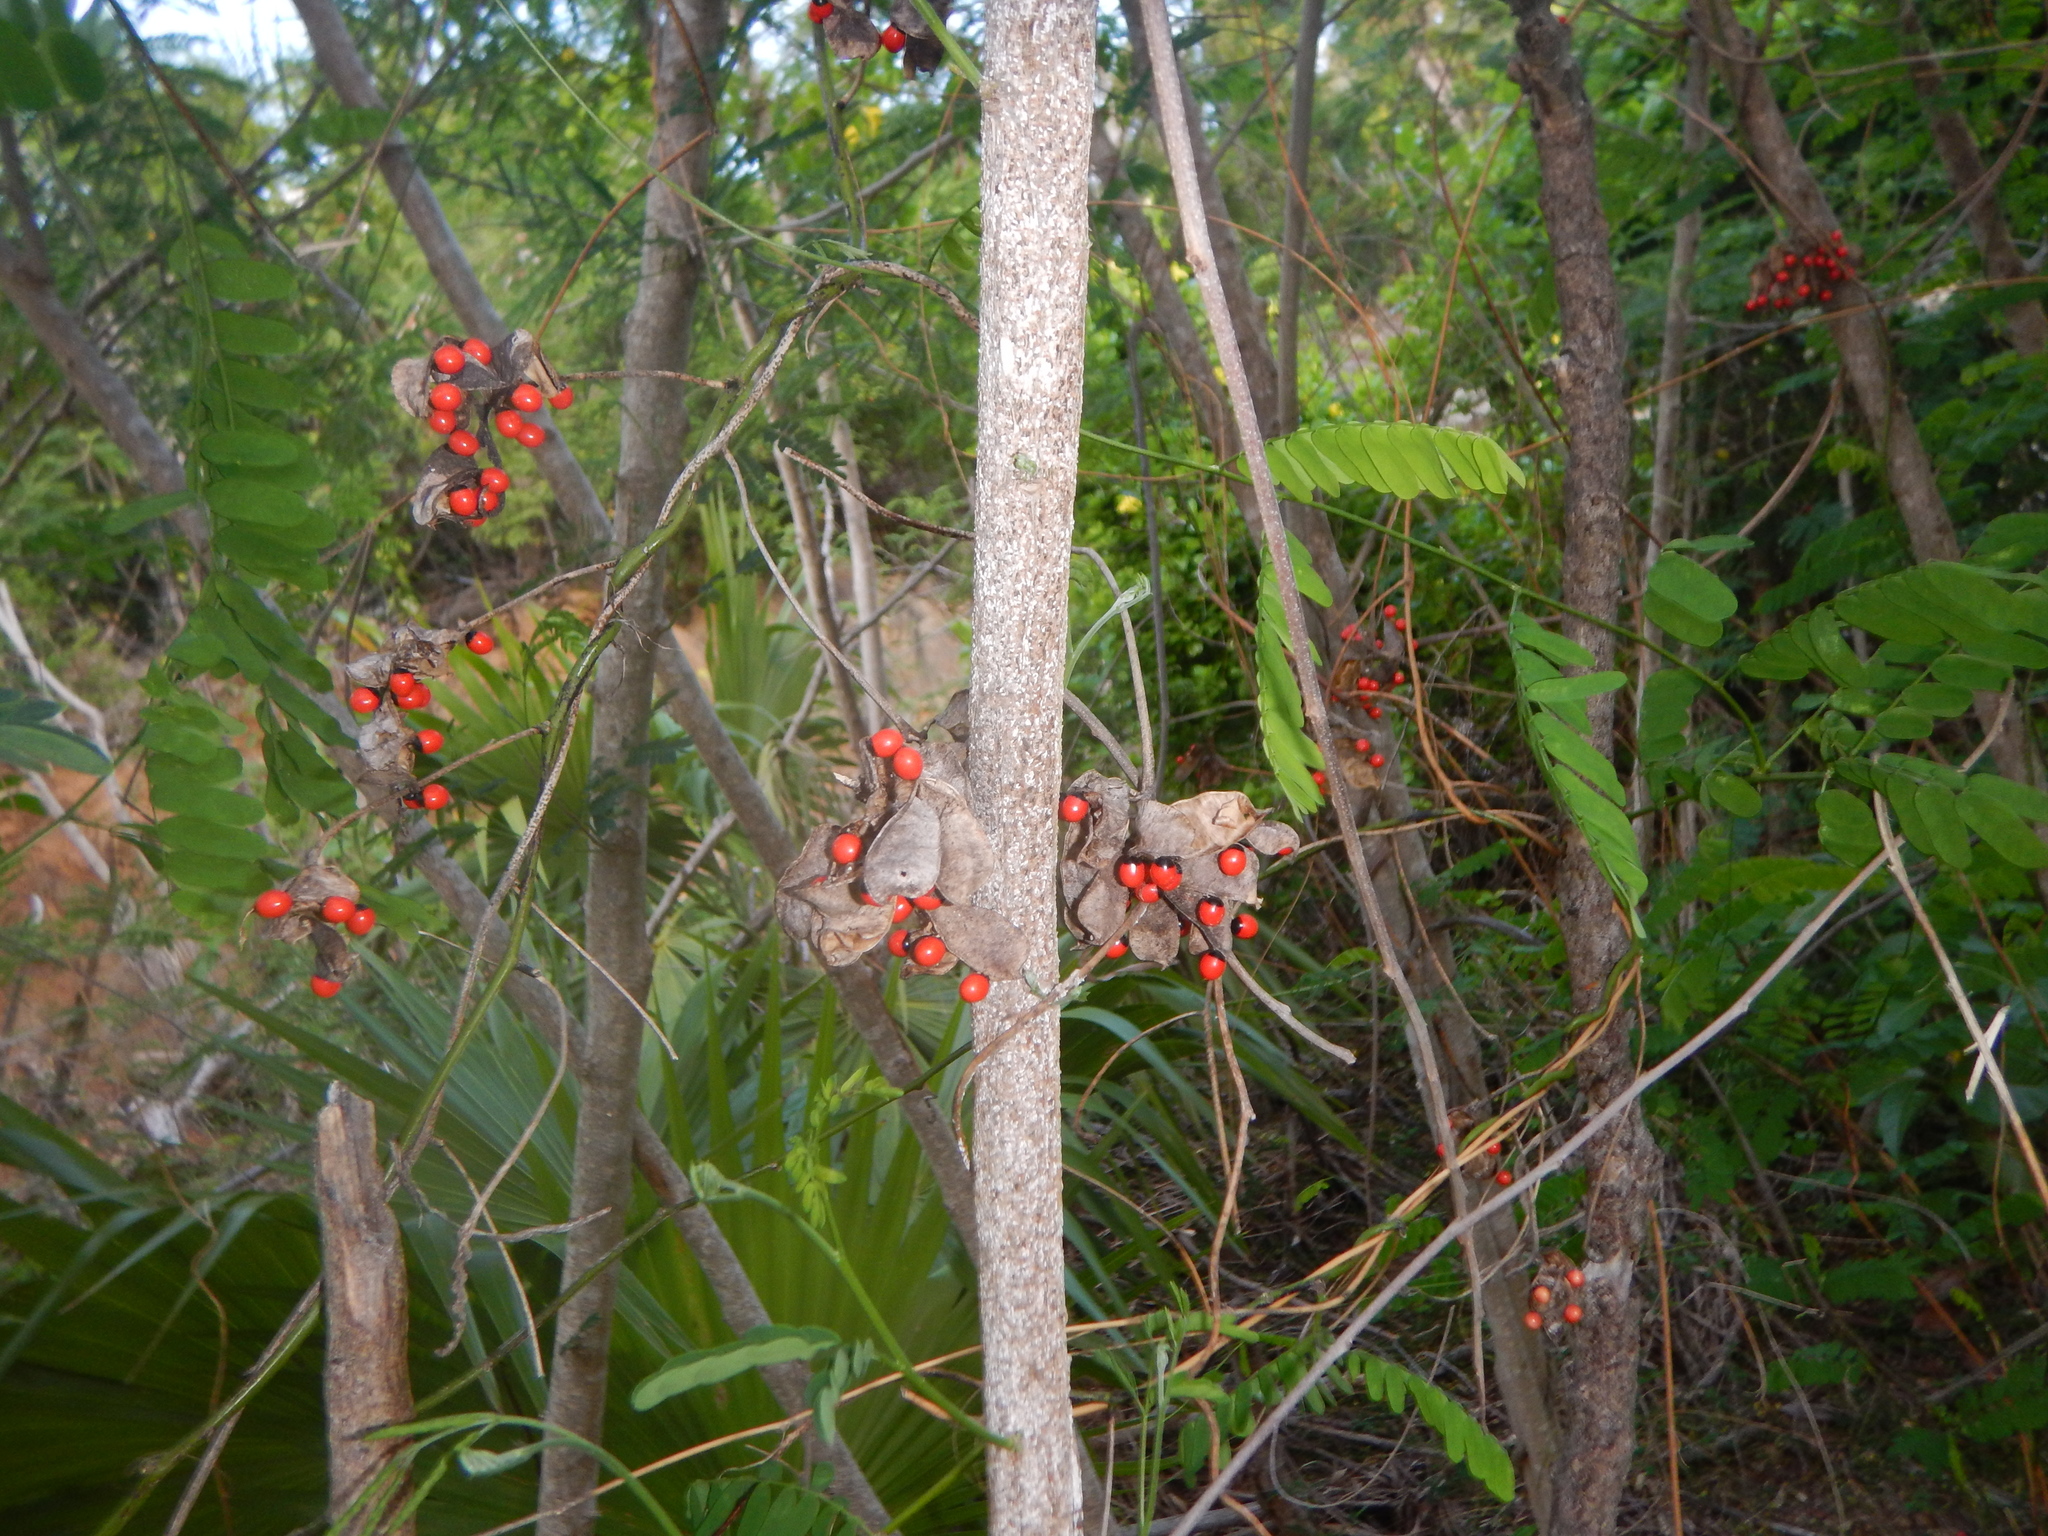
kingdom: Plantae
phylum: Tracheophyta
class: Magnoliopsida
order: Fabales
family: Fabaceae
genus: Abrus
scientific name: Abrus precatorius
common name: Rosarypea
